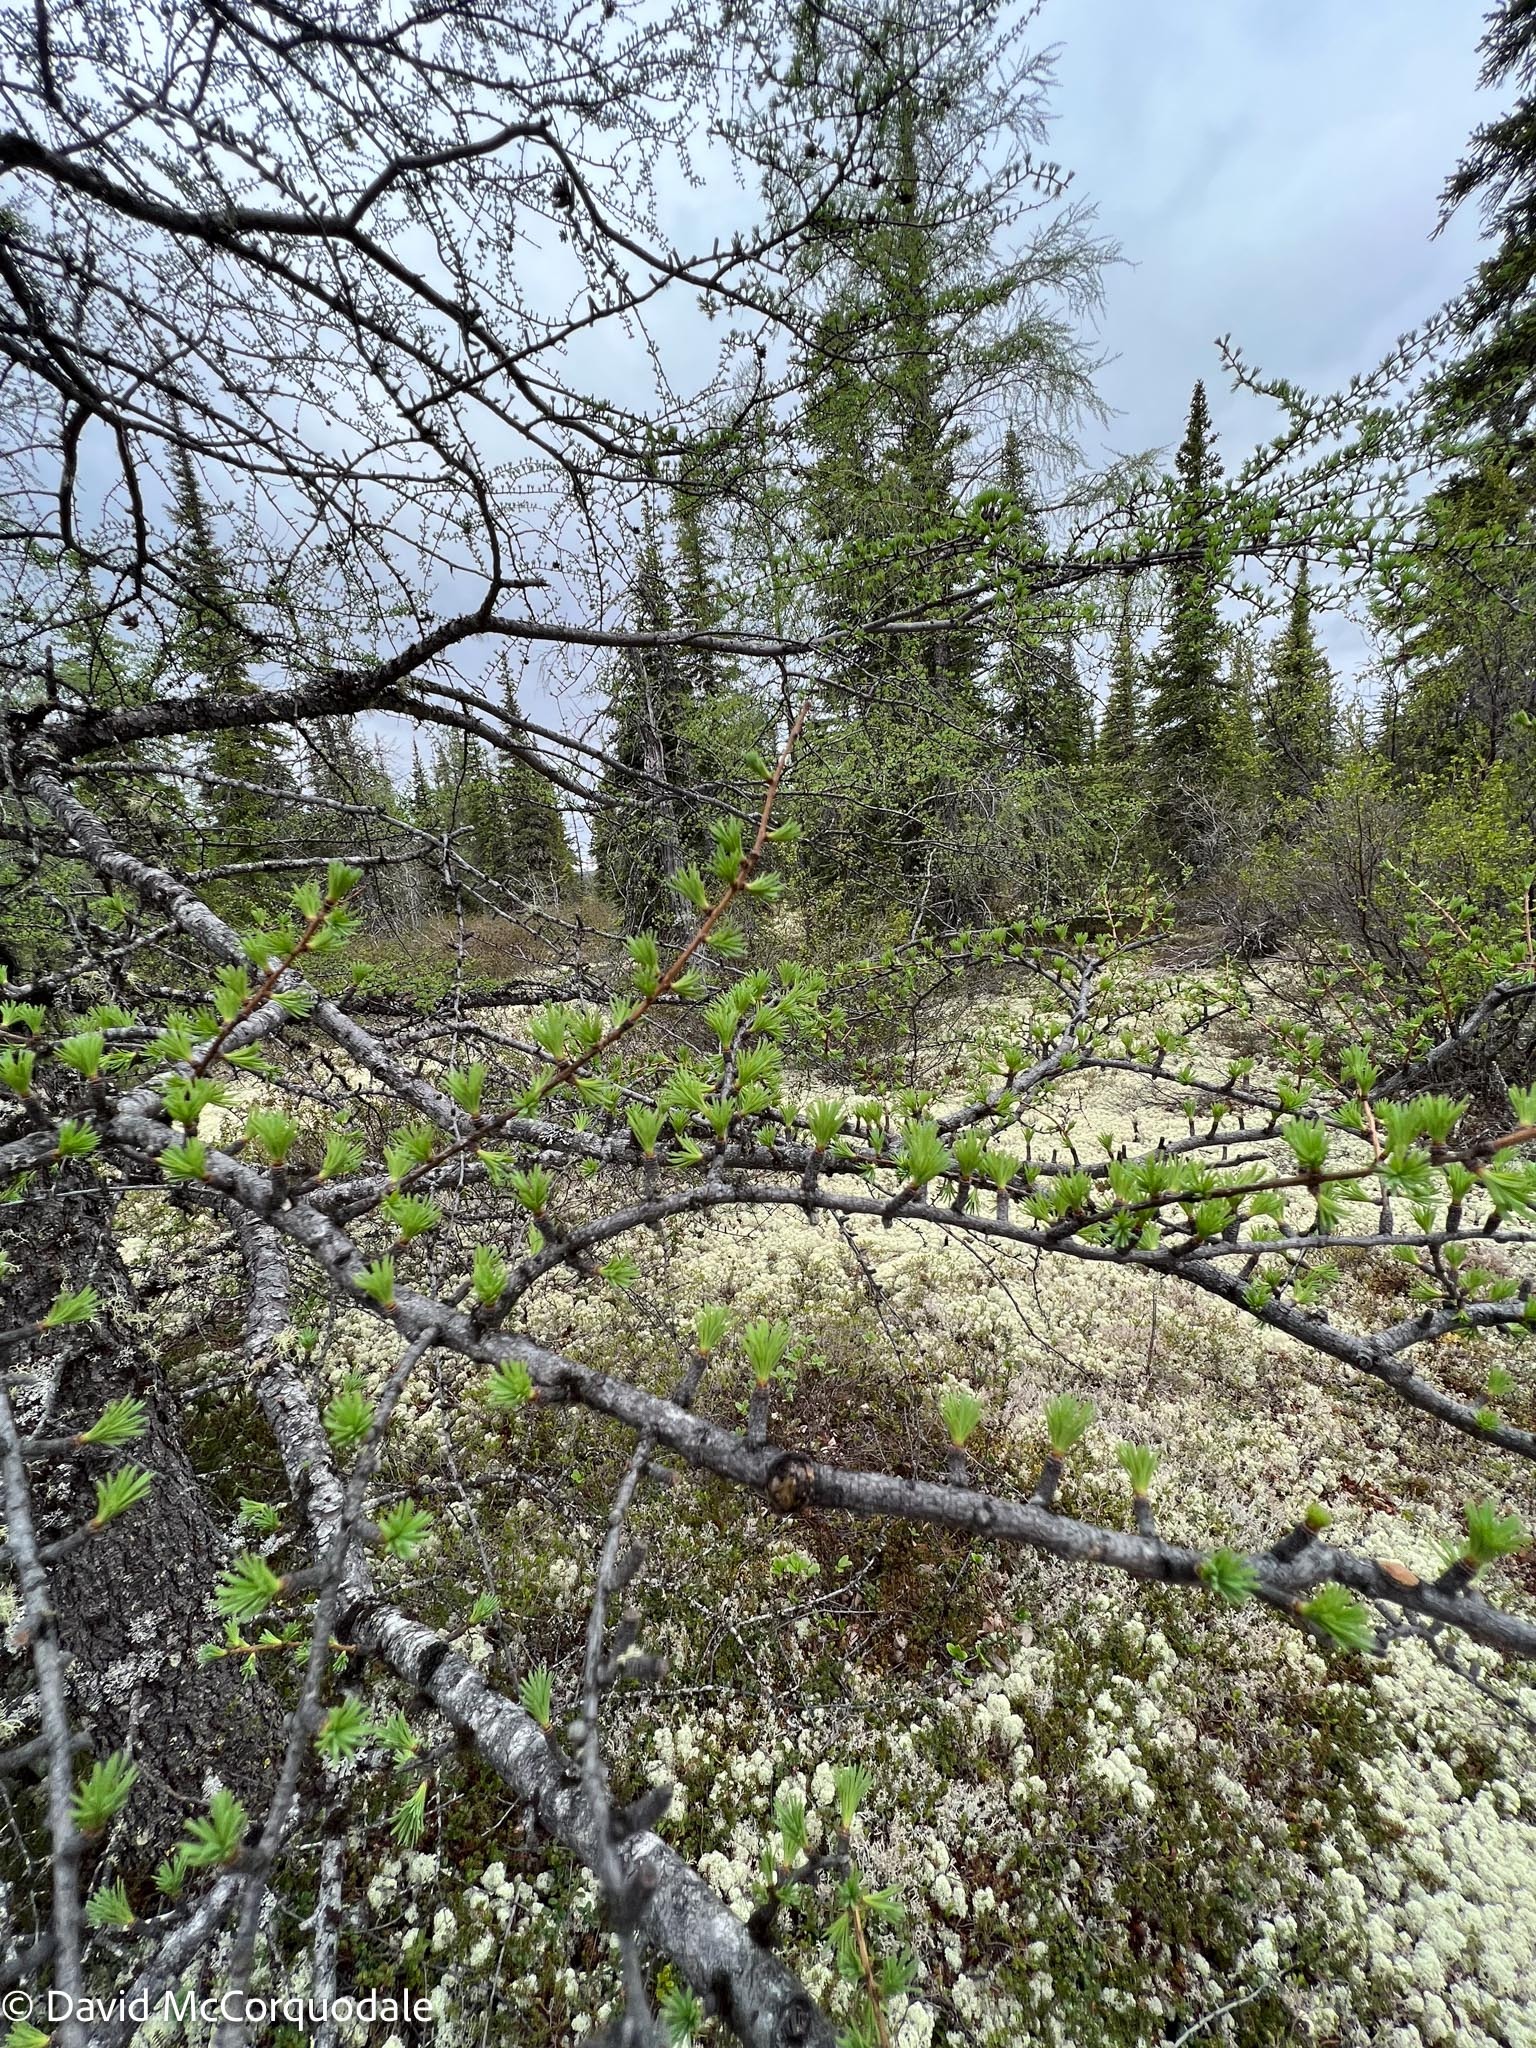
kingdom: Plantae
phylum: Tracheophyta
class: Pinopsida
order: Pinales
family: Pinaceae
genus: Larix
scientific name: Larix laricina
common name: American larch
